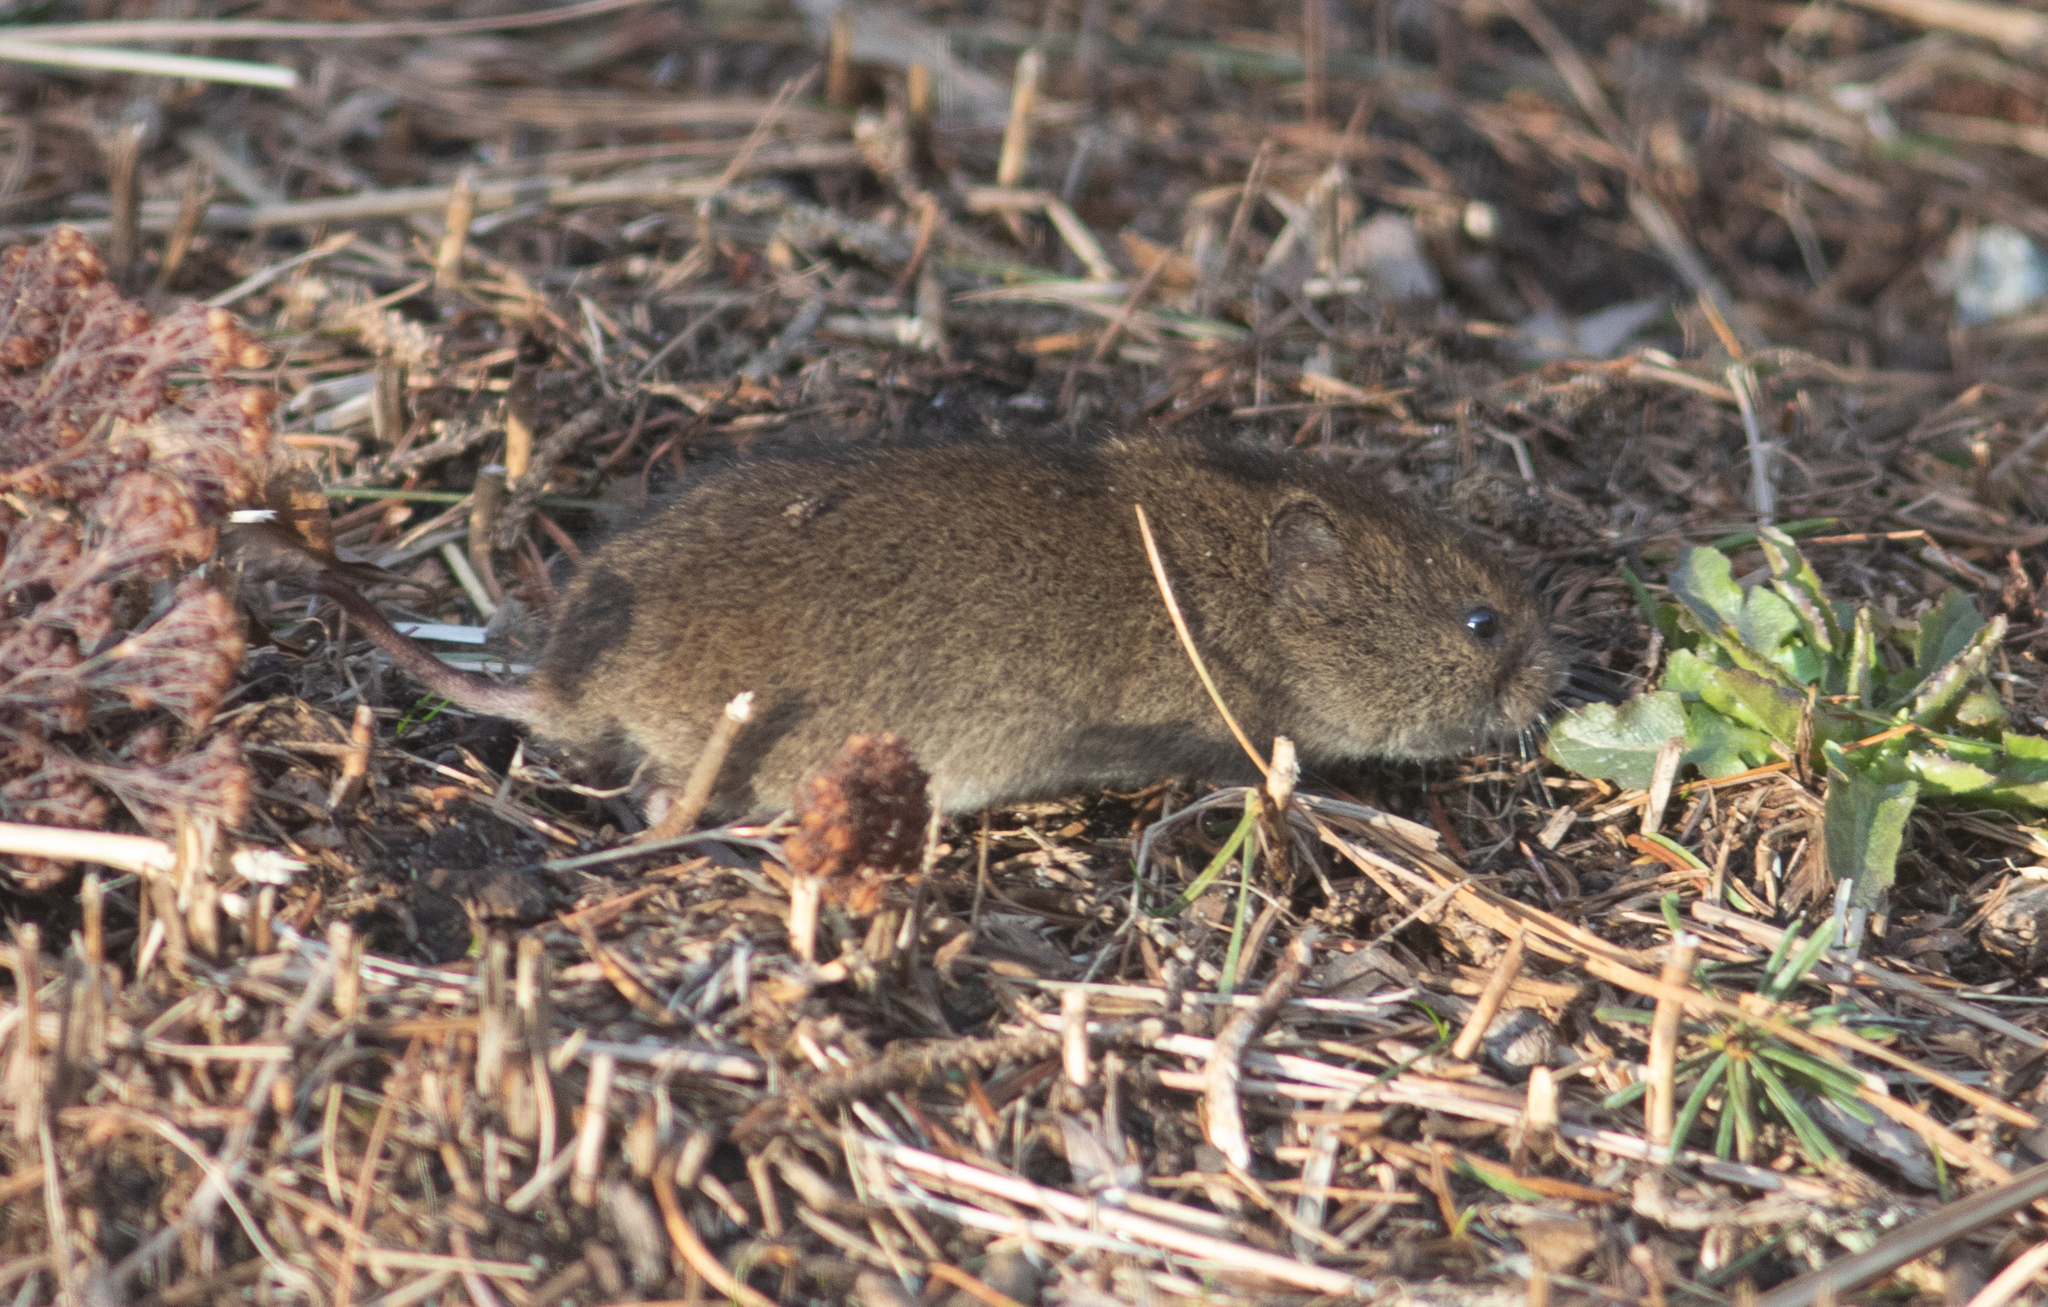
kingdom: Animalia
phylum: Chordata
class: Mammalia
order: Rodentia
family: Cricetidae
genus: Microtus
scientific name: Microtus pennsylvanicus
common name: Meadow vole
